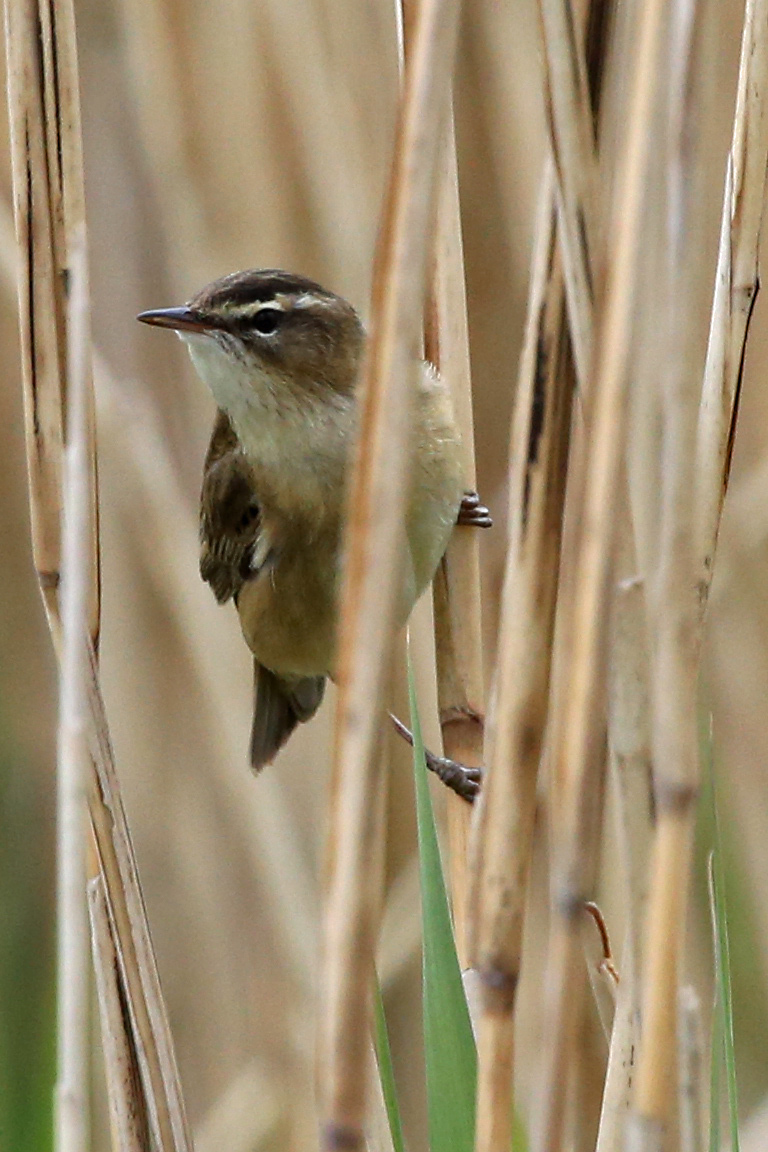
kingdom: Animalia
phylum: Chordata
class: Aves
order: Passeriformes
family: Acrocephalidae
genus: Acrocephalus
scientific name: Acrocephalus schoenobaenus
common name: Sedge warbler
